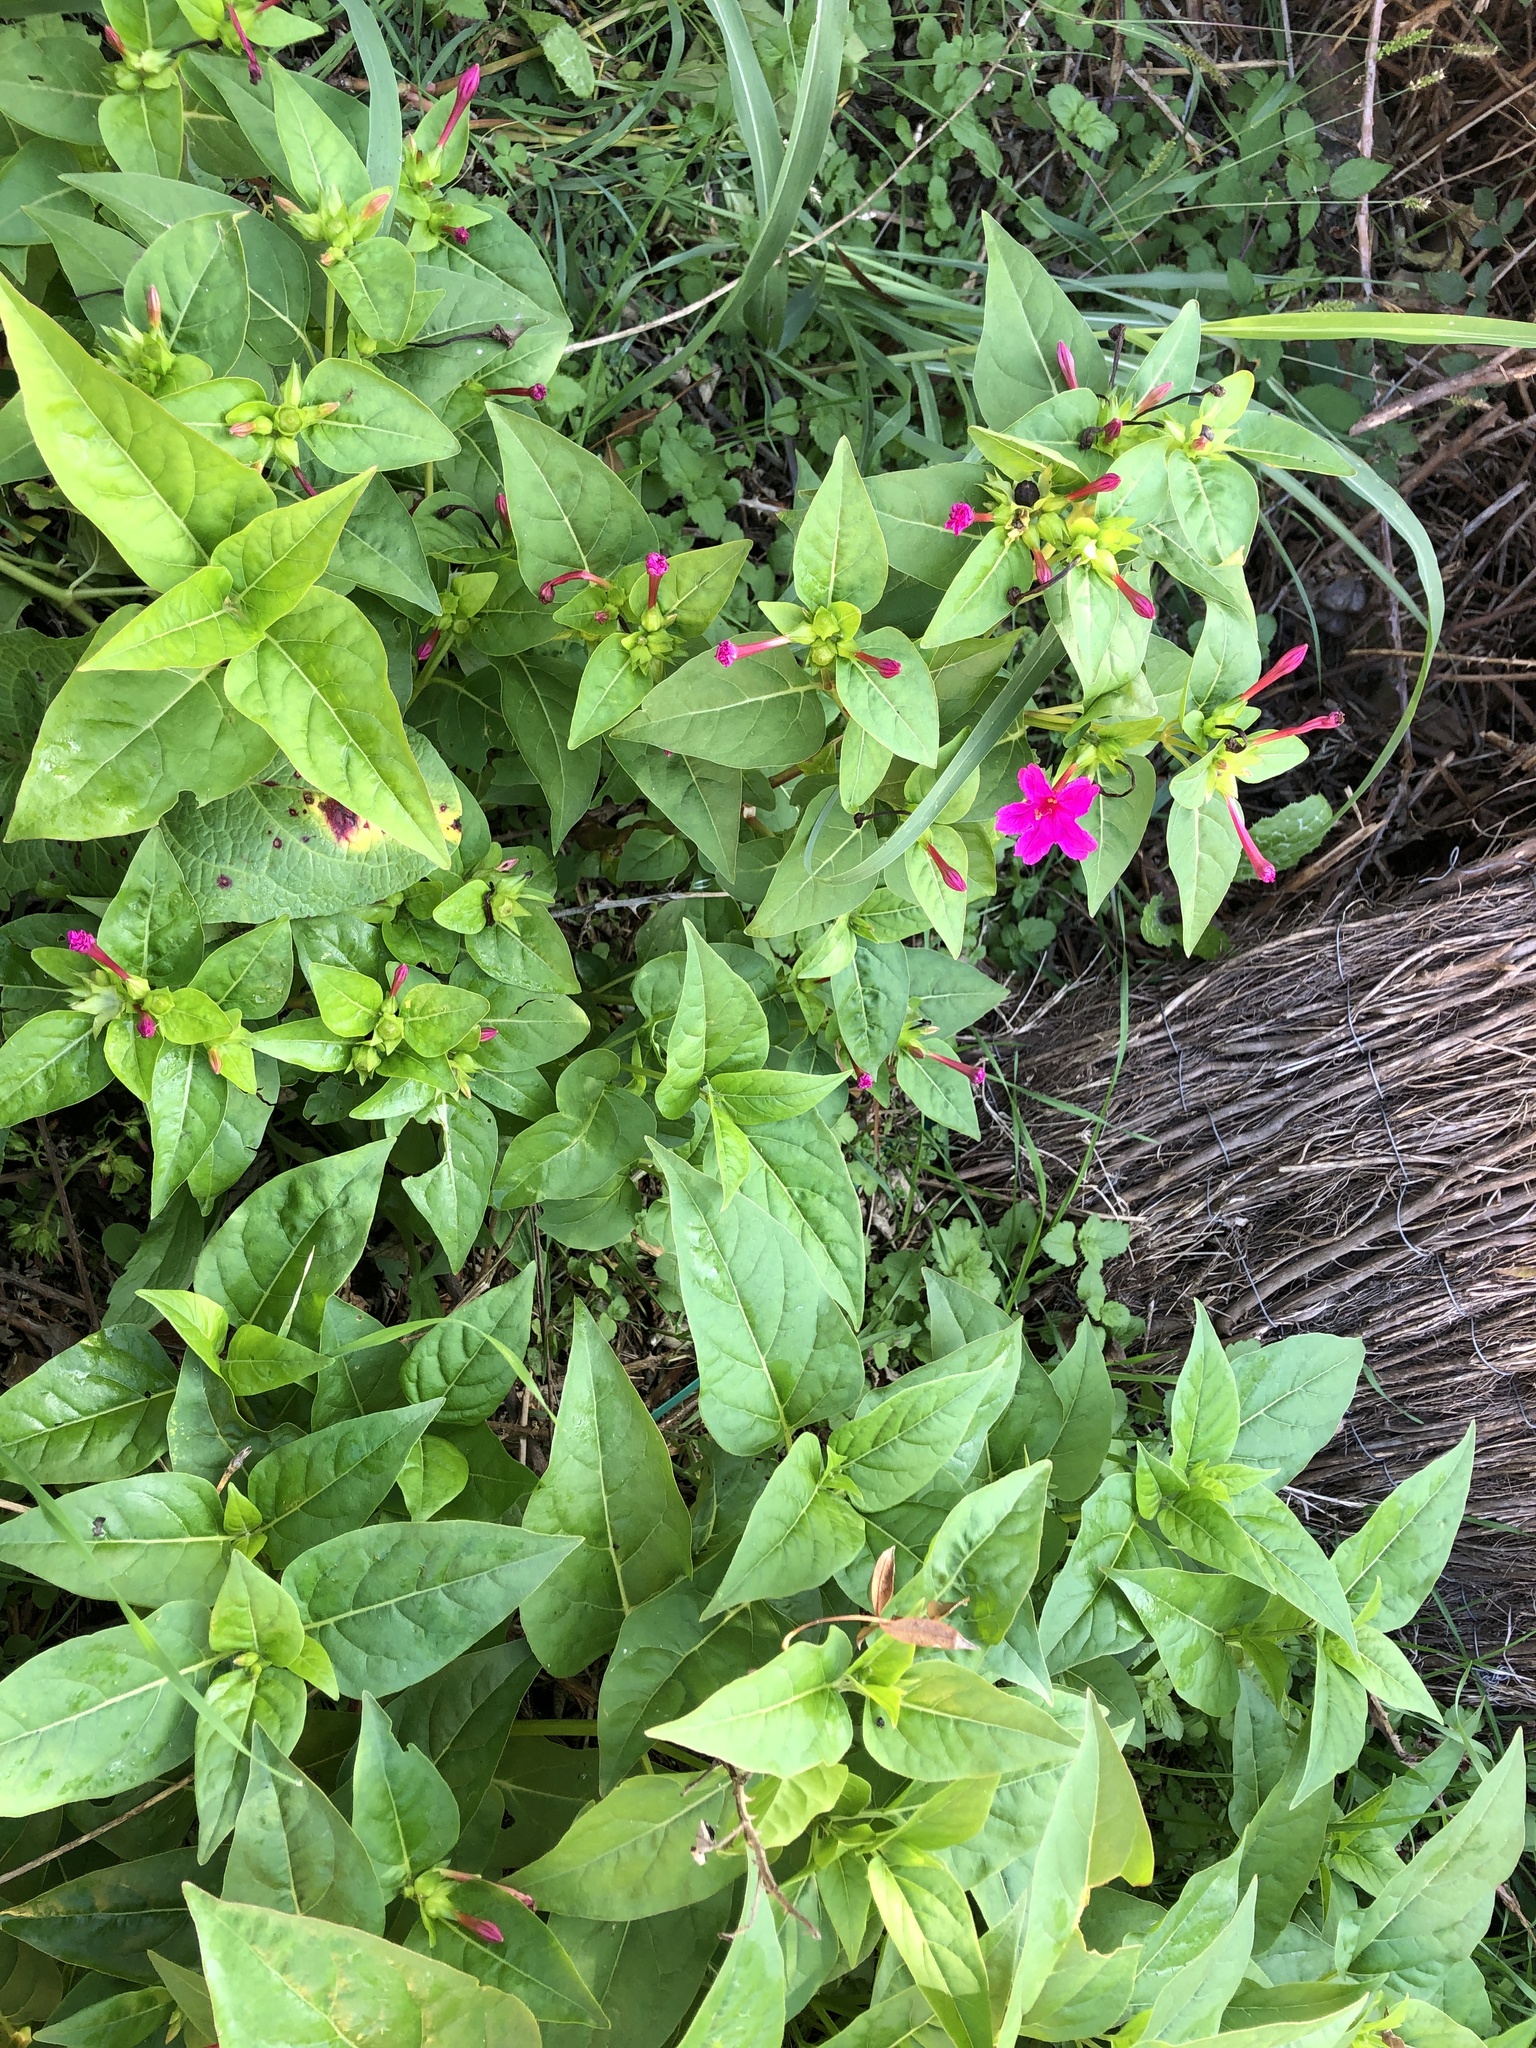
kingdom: Plantae
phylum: Tracheophyta
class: Magnoliopsida
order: Caryophyllales
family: Nyctaginaceae
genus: Mirabilis
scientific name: Mirabilis jalapa
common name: Marvel-of-peru
